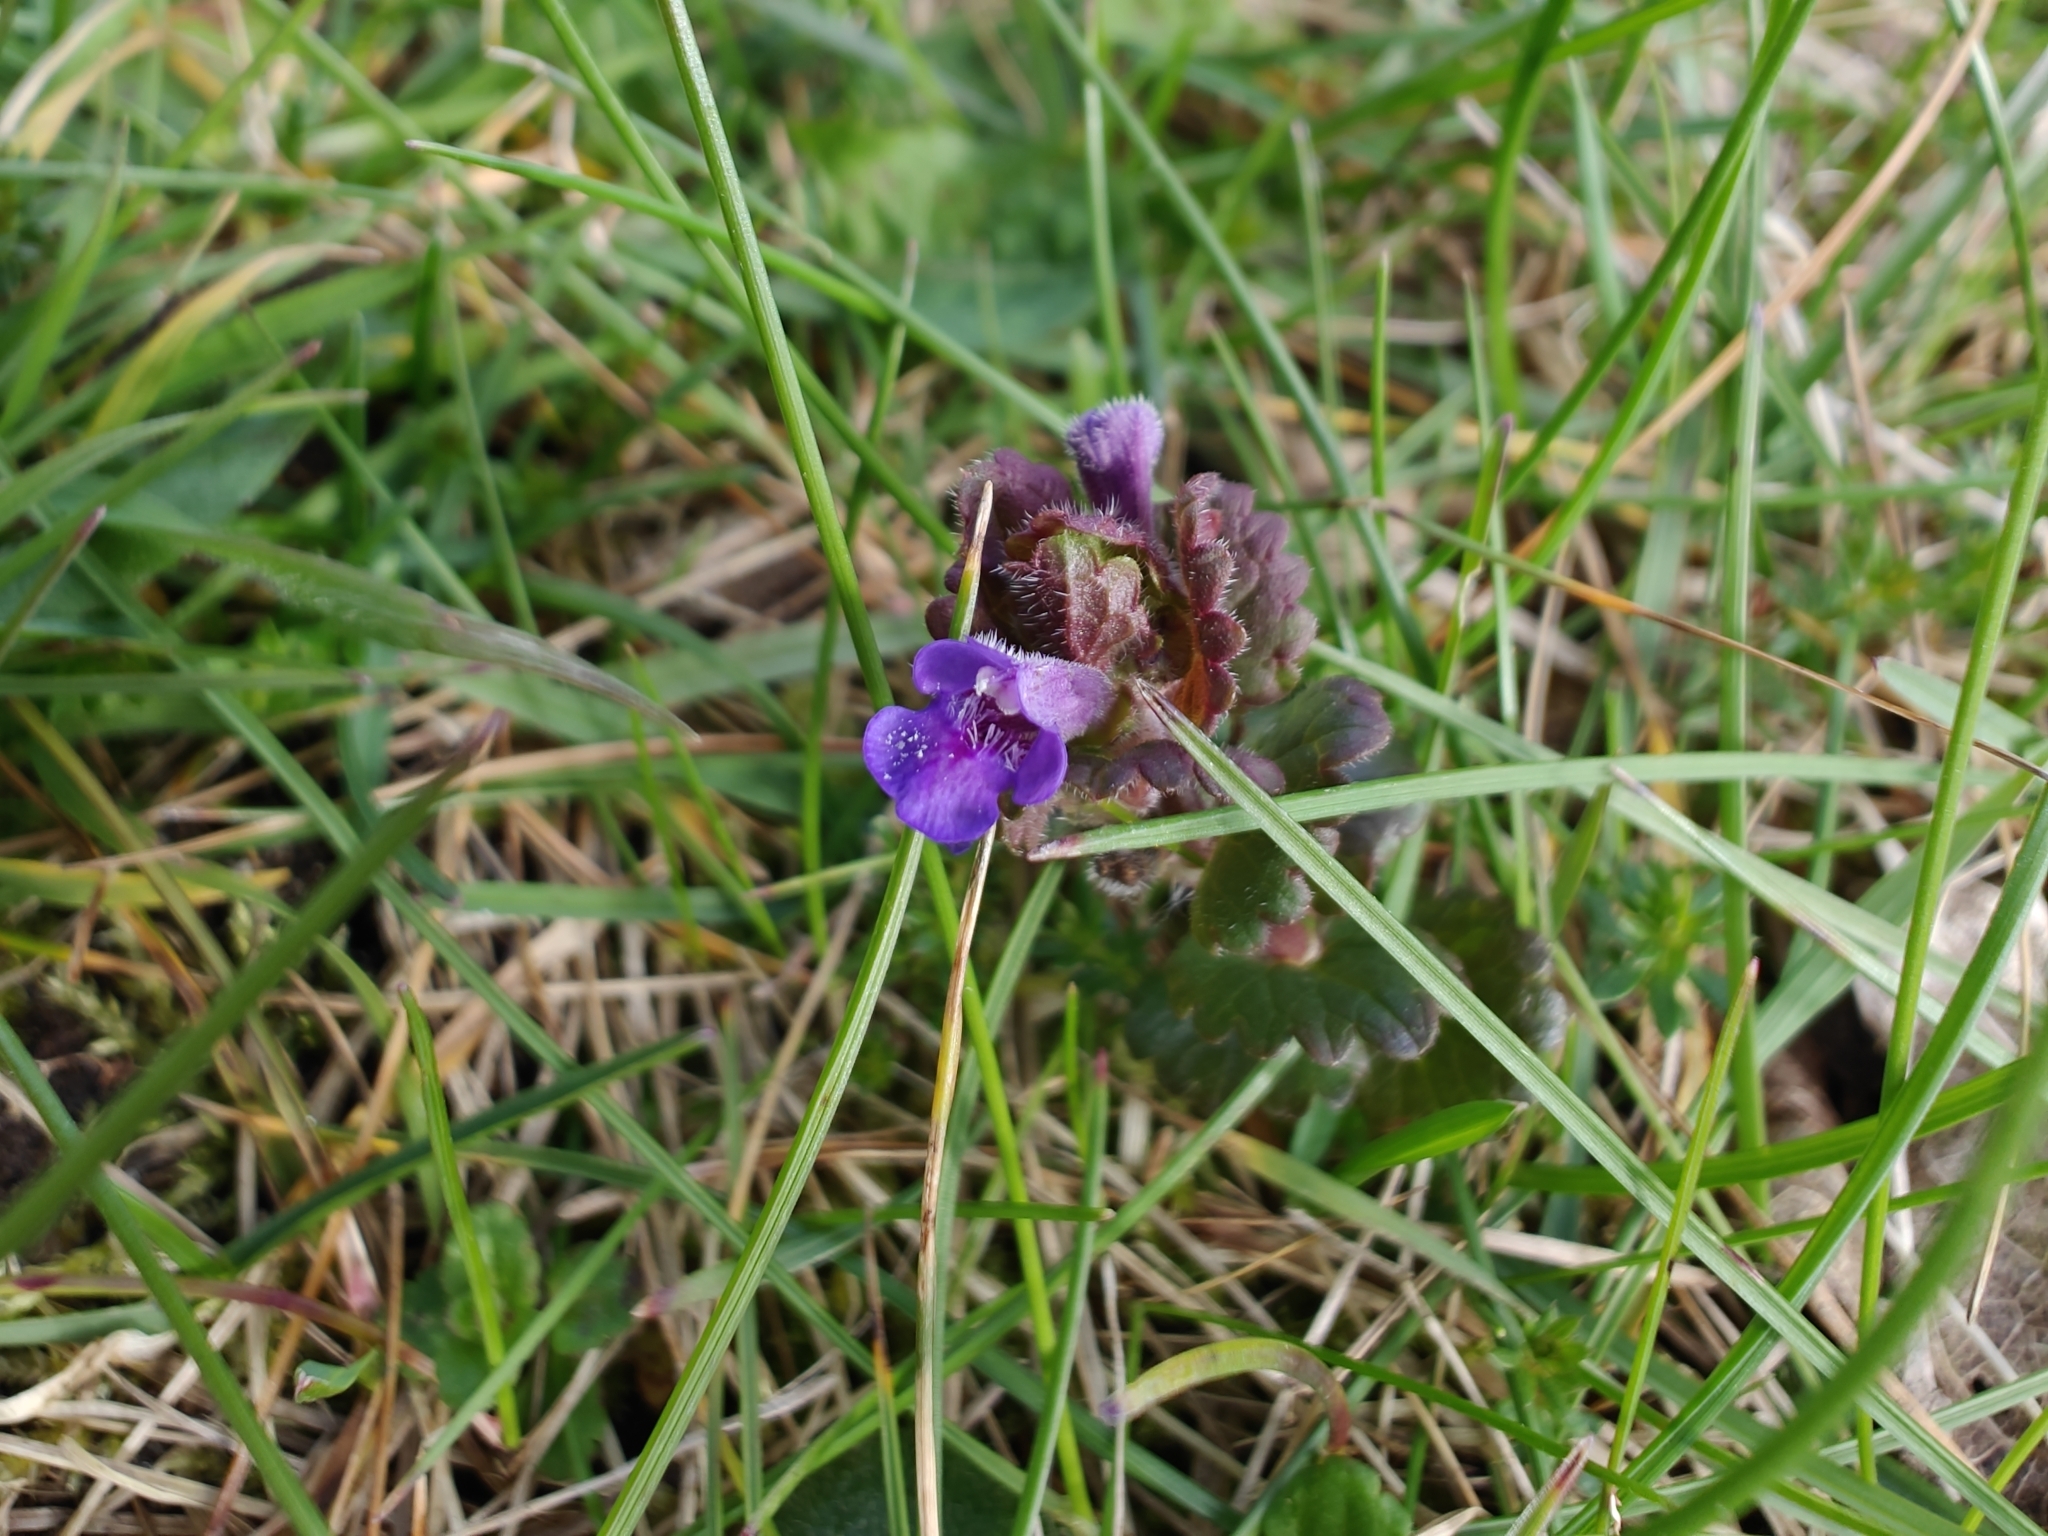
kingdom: Plantae
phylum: Tracheophyta
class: Magnoliopsida
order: Lamiales
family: Lamiaceae
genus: Glechoma
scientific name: Glechoma hederacea
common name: Ground ivy
